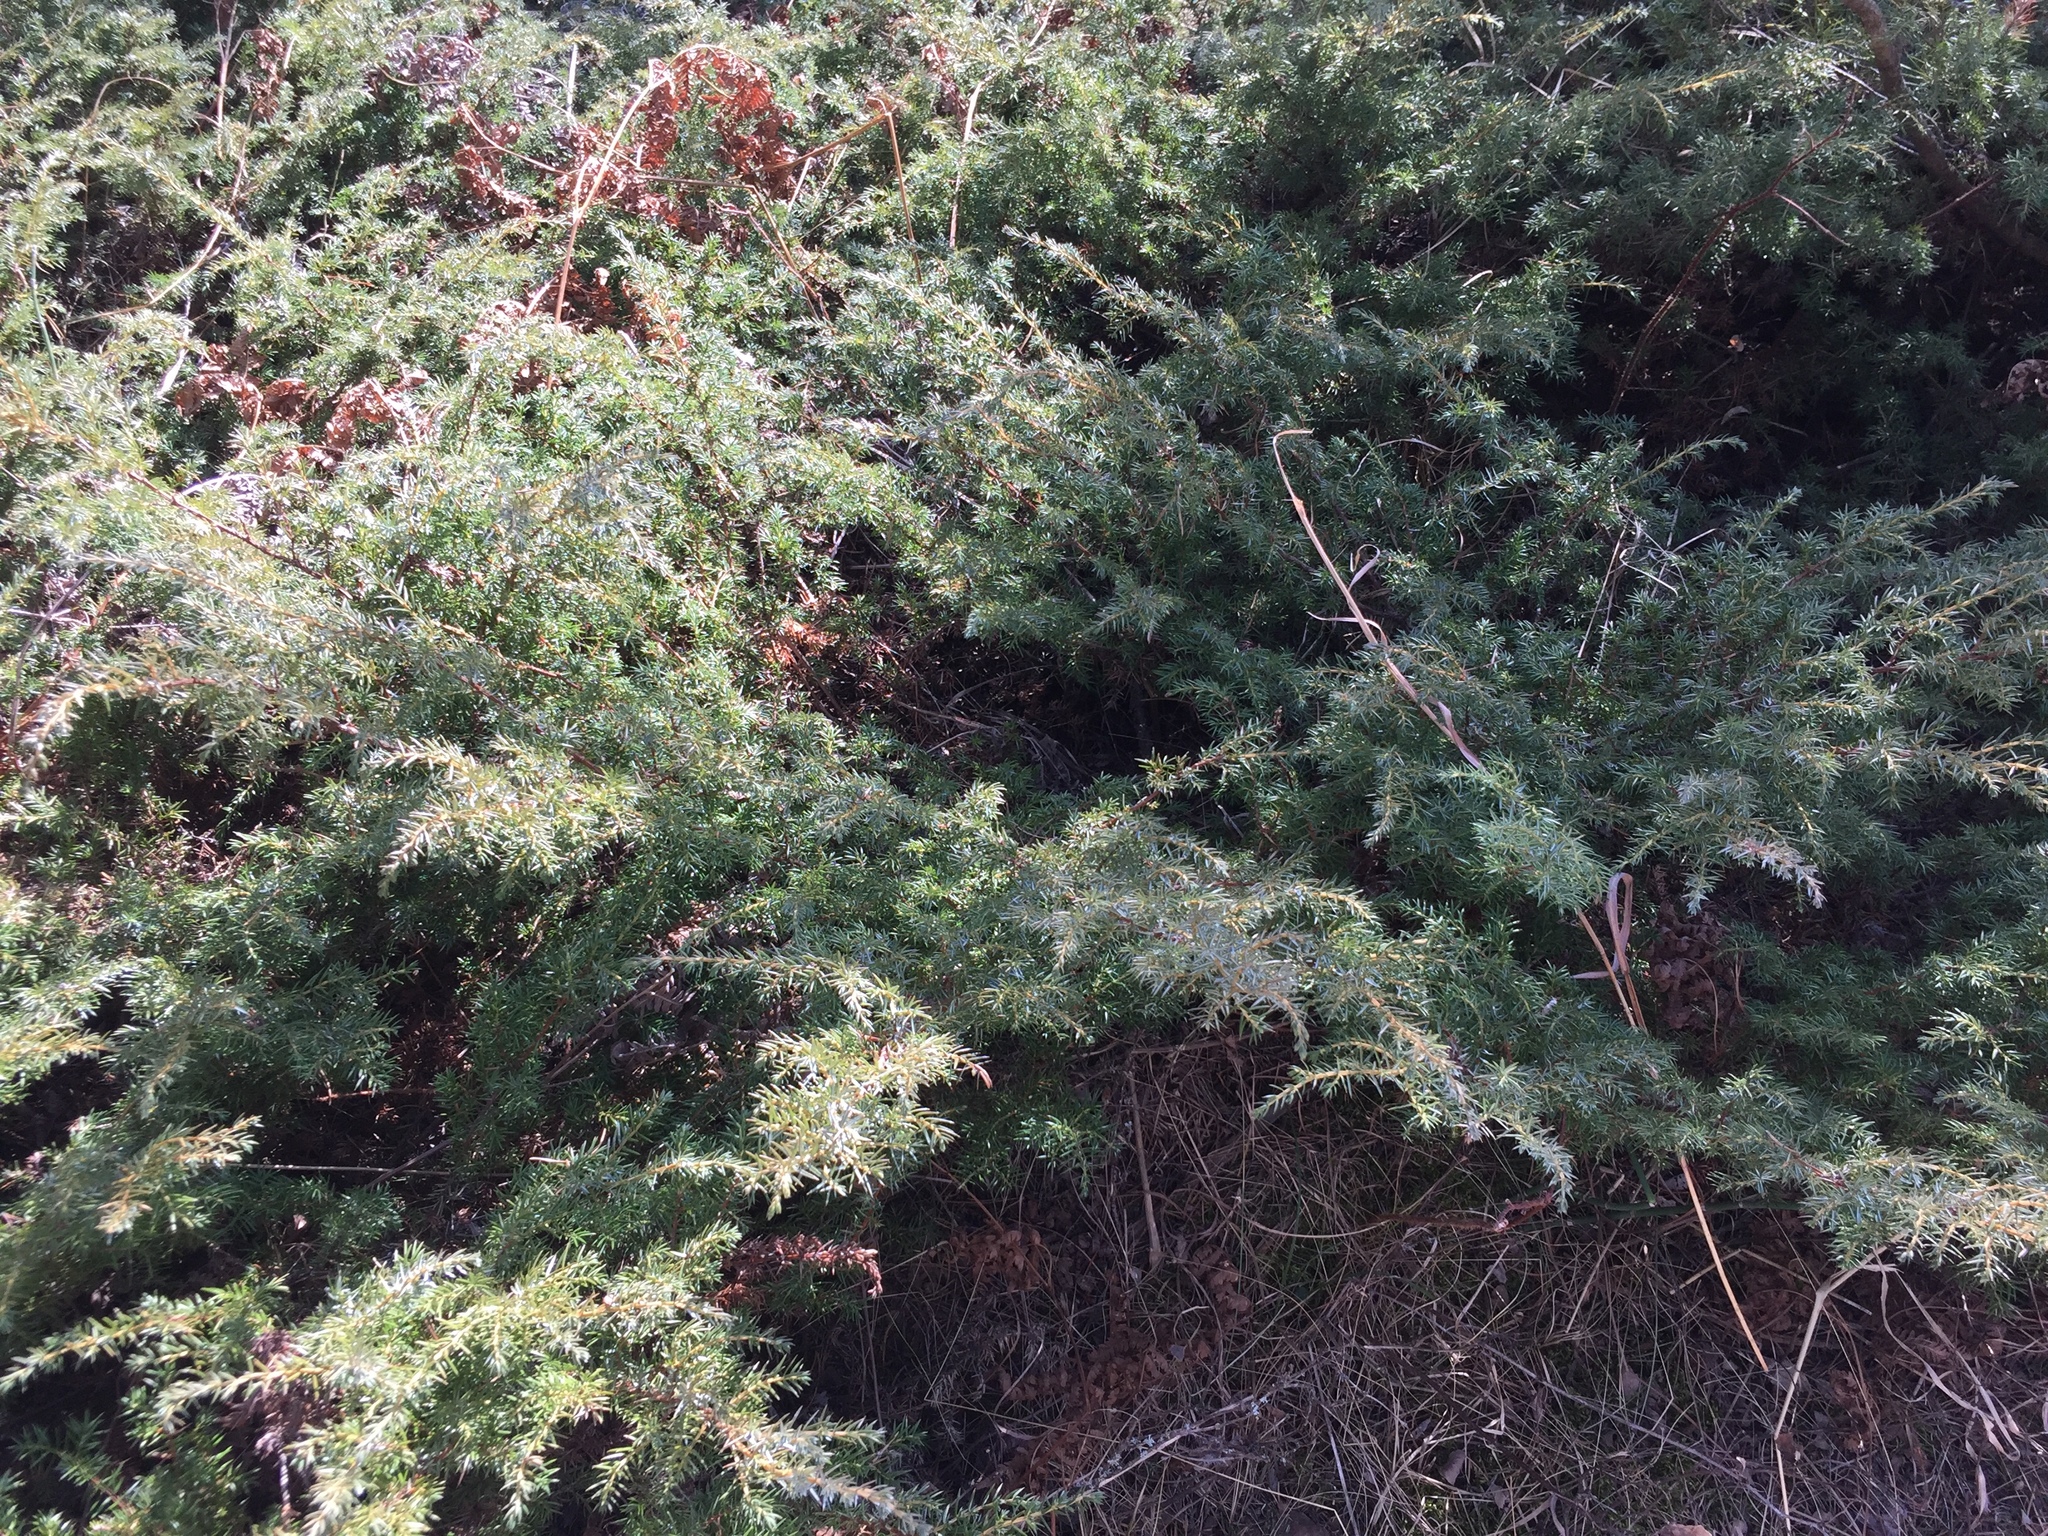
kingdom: Plantae
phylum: Tracheophyta
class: Pinopsida
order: Pinales
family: Cupressaceae
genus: Juniperus
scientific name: Juniperus communis
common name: Common juniper
